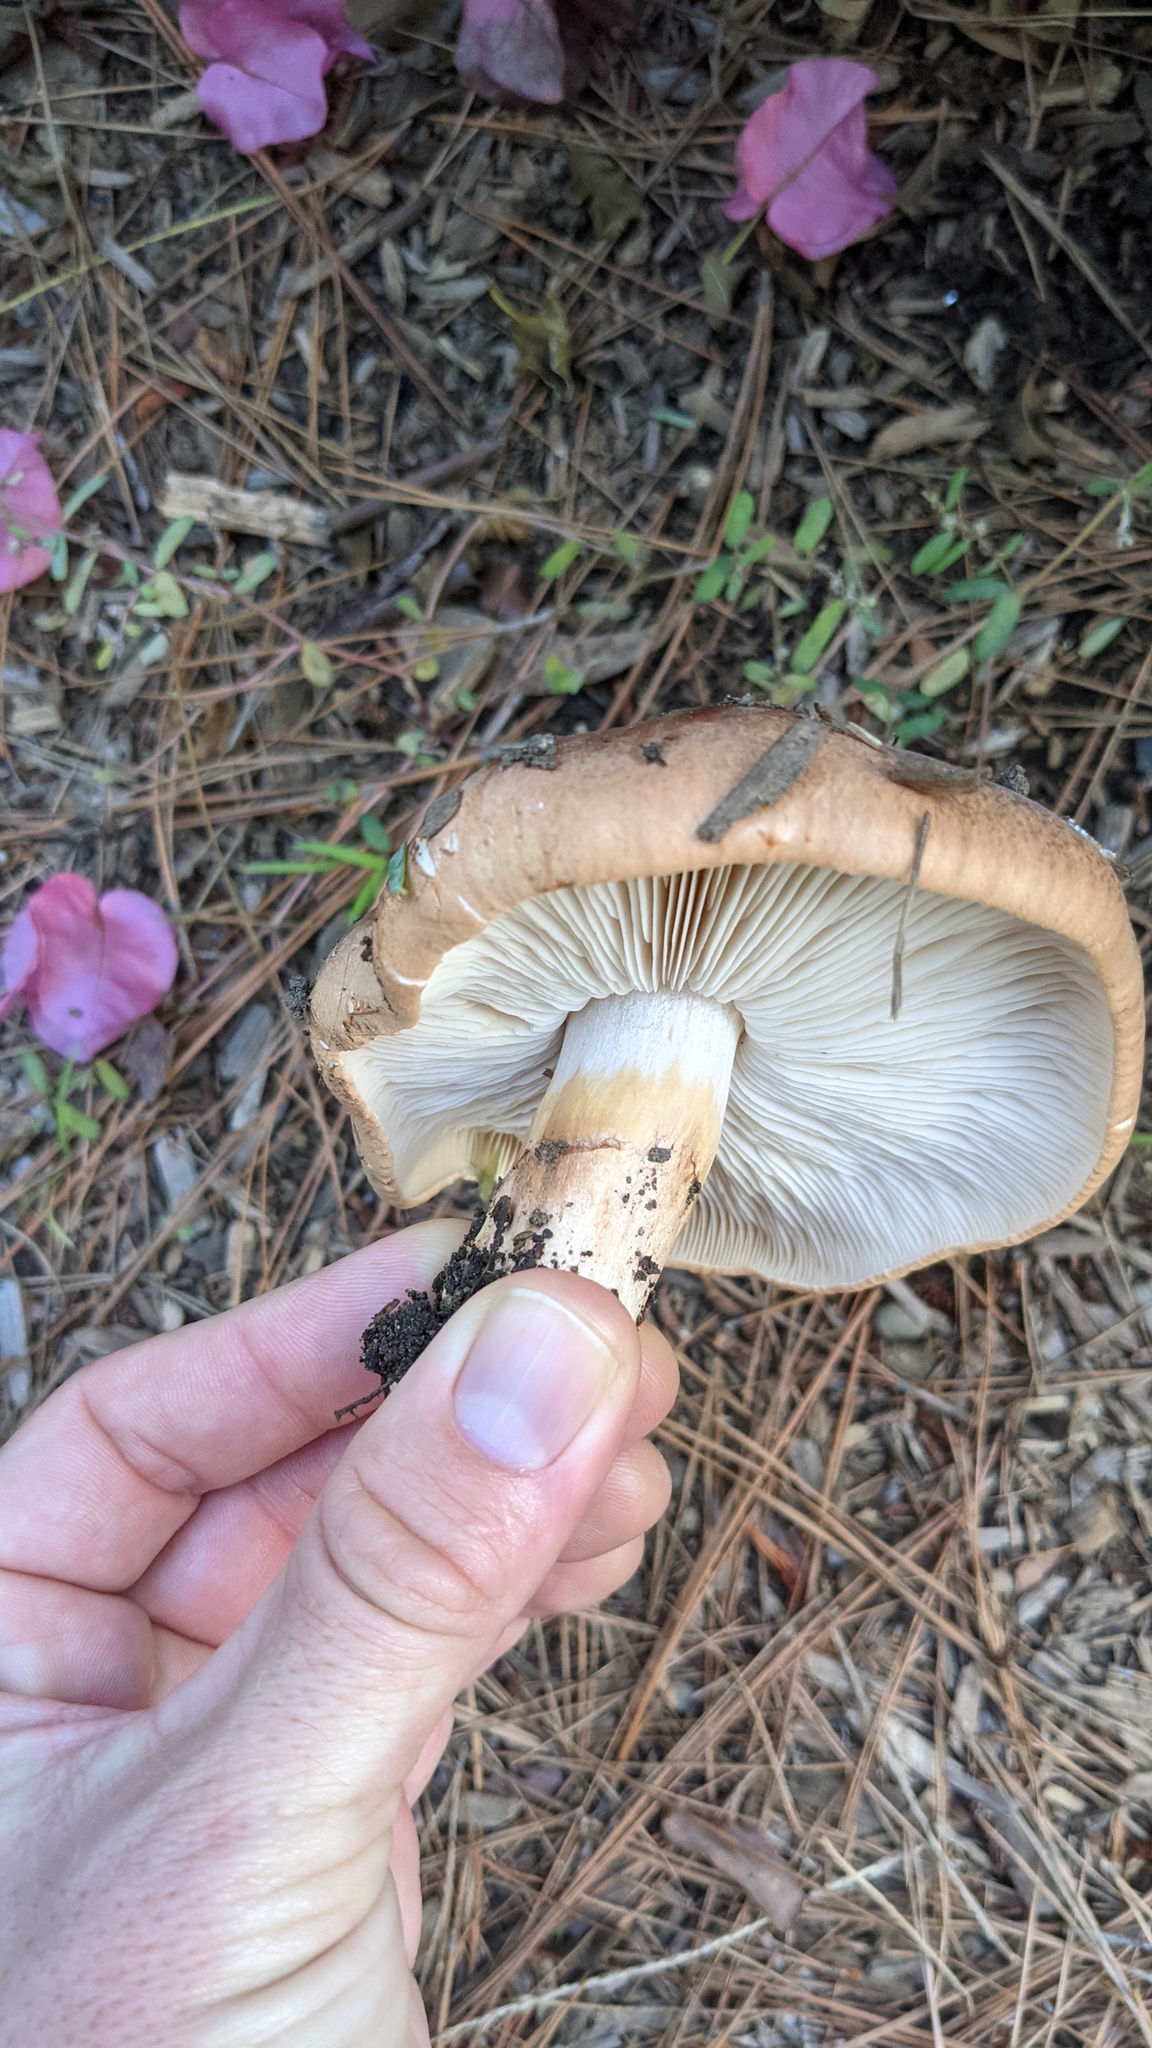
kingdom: Fungi
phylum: Basidiomycota
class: Agaricomycetes
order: Agaricales
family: Tricholomataceae
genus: Tricholoma
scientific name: Tricholoma fracticum
